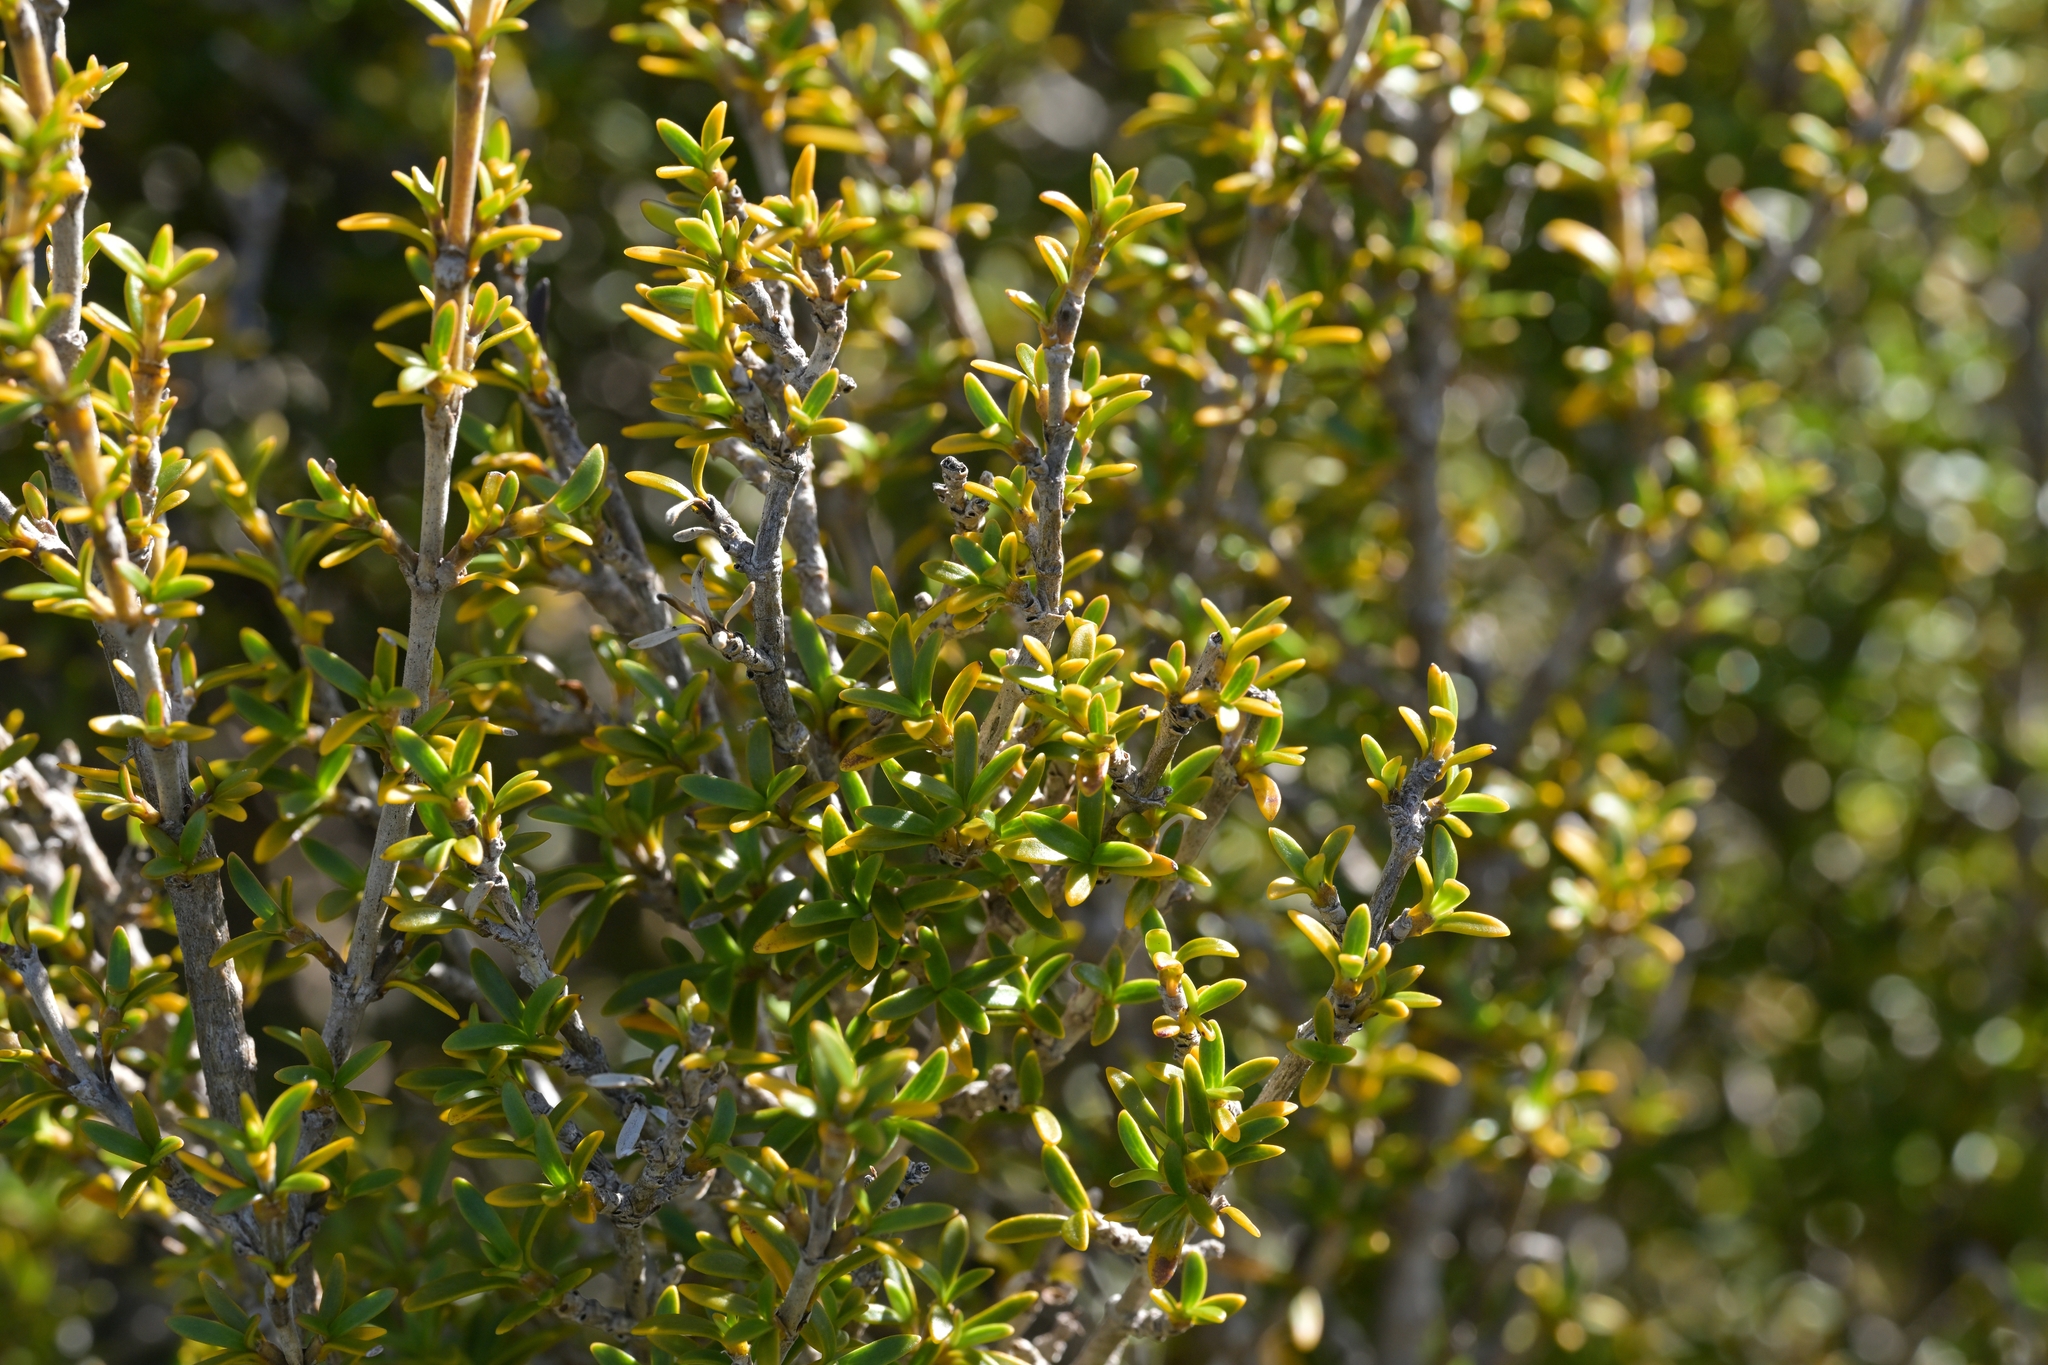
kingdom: Plantae
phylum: Tracheophyta
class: Magnoliopsida
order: Gentianales
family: Rubiaceae
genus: Coprosma
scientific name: Coprosma pseudocuneata
